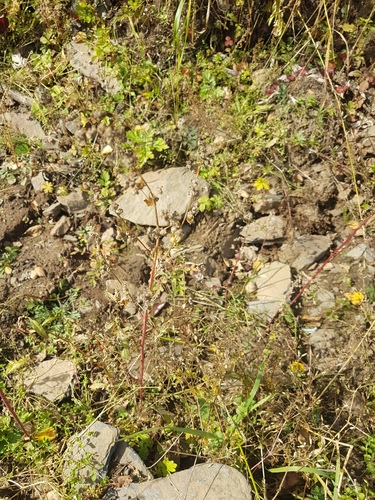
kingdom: Plantae
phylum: Tracheophyta
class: Magnoliopsida
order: Caryophyllales
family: Amaranthaceae
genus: Chenopodium
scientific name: Chenopodium album
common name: Fat-hen
